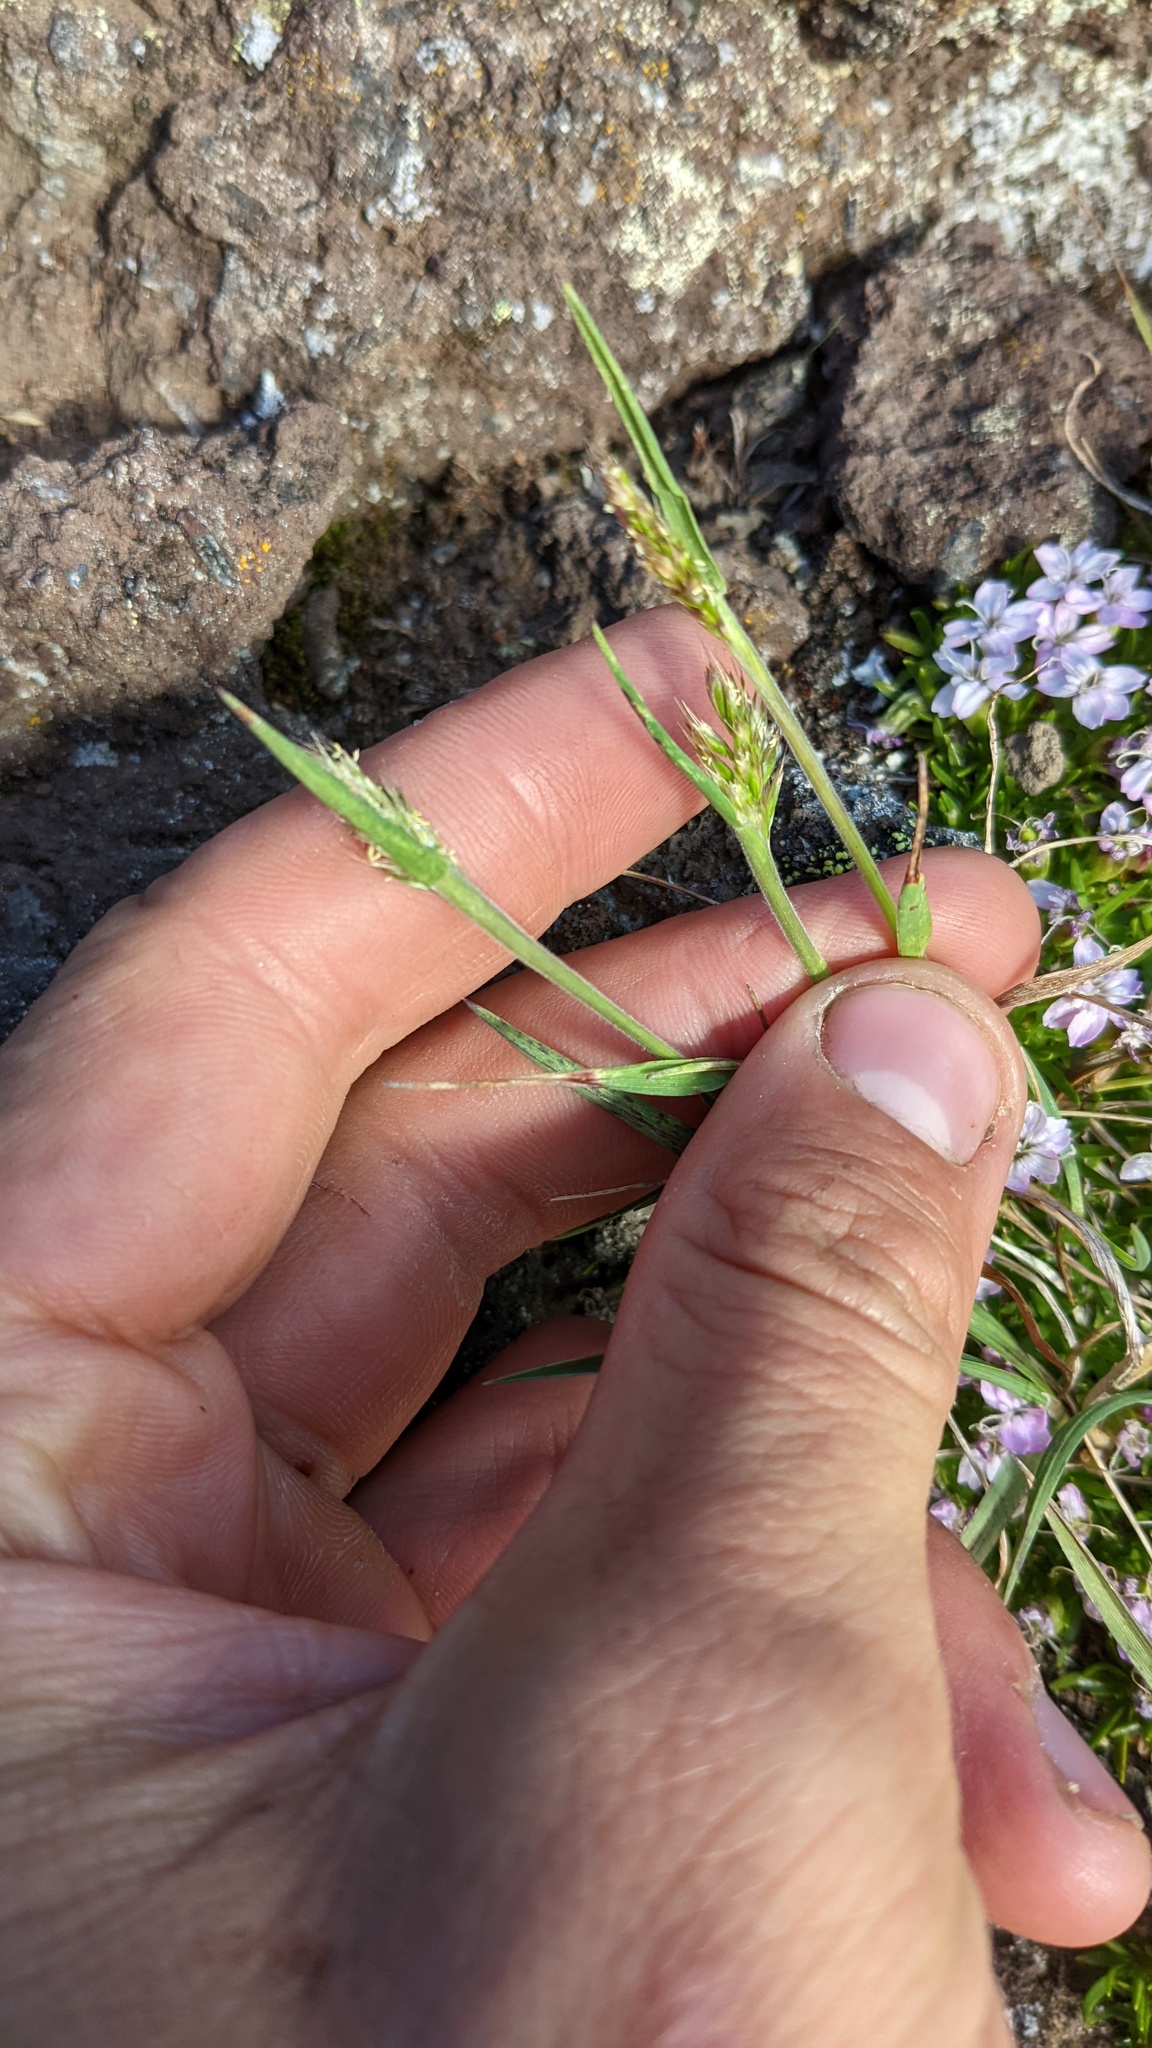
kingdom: Plantae
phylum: Tracheophyta
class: Liliopsida
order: Poales
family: Poaceae
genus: Anthoxanthum
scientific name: Anthoxanthum monticola
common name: Alpine sweetgrass
